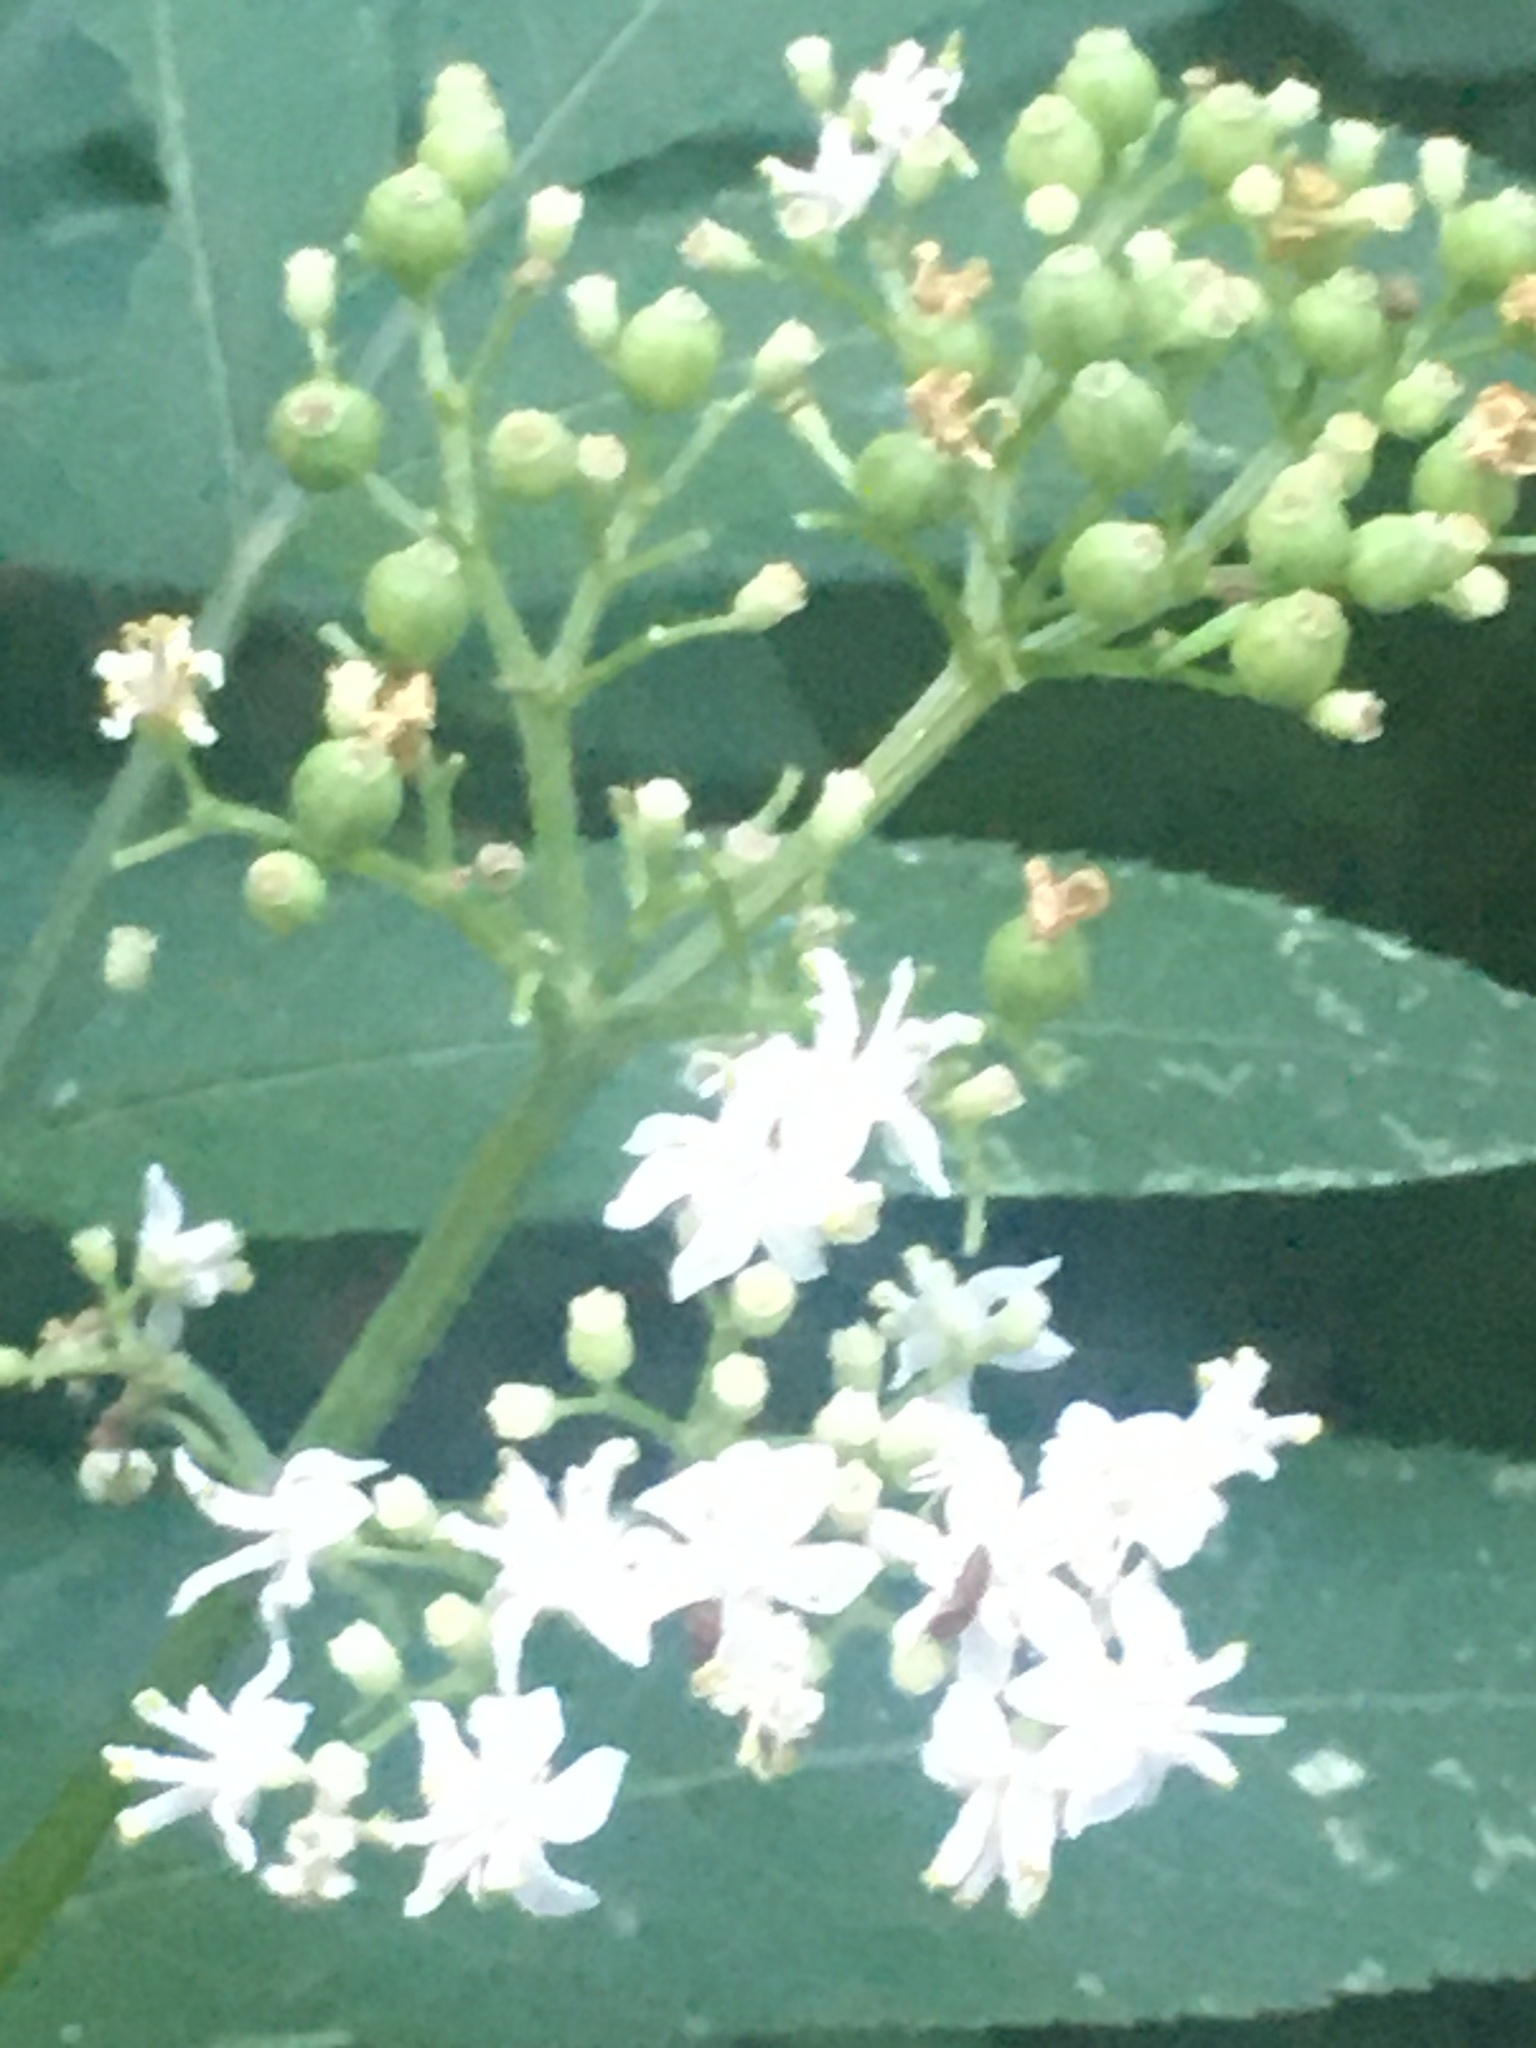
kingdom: Plantae
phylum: Tracheophyta
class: Magnoliopsida
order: Dipsacales
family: Viburnaceae
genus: Sambucus
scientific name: Sambucus ebulus
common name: Dwarf elder
